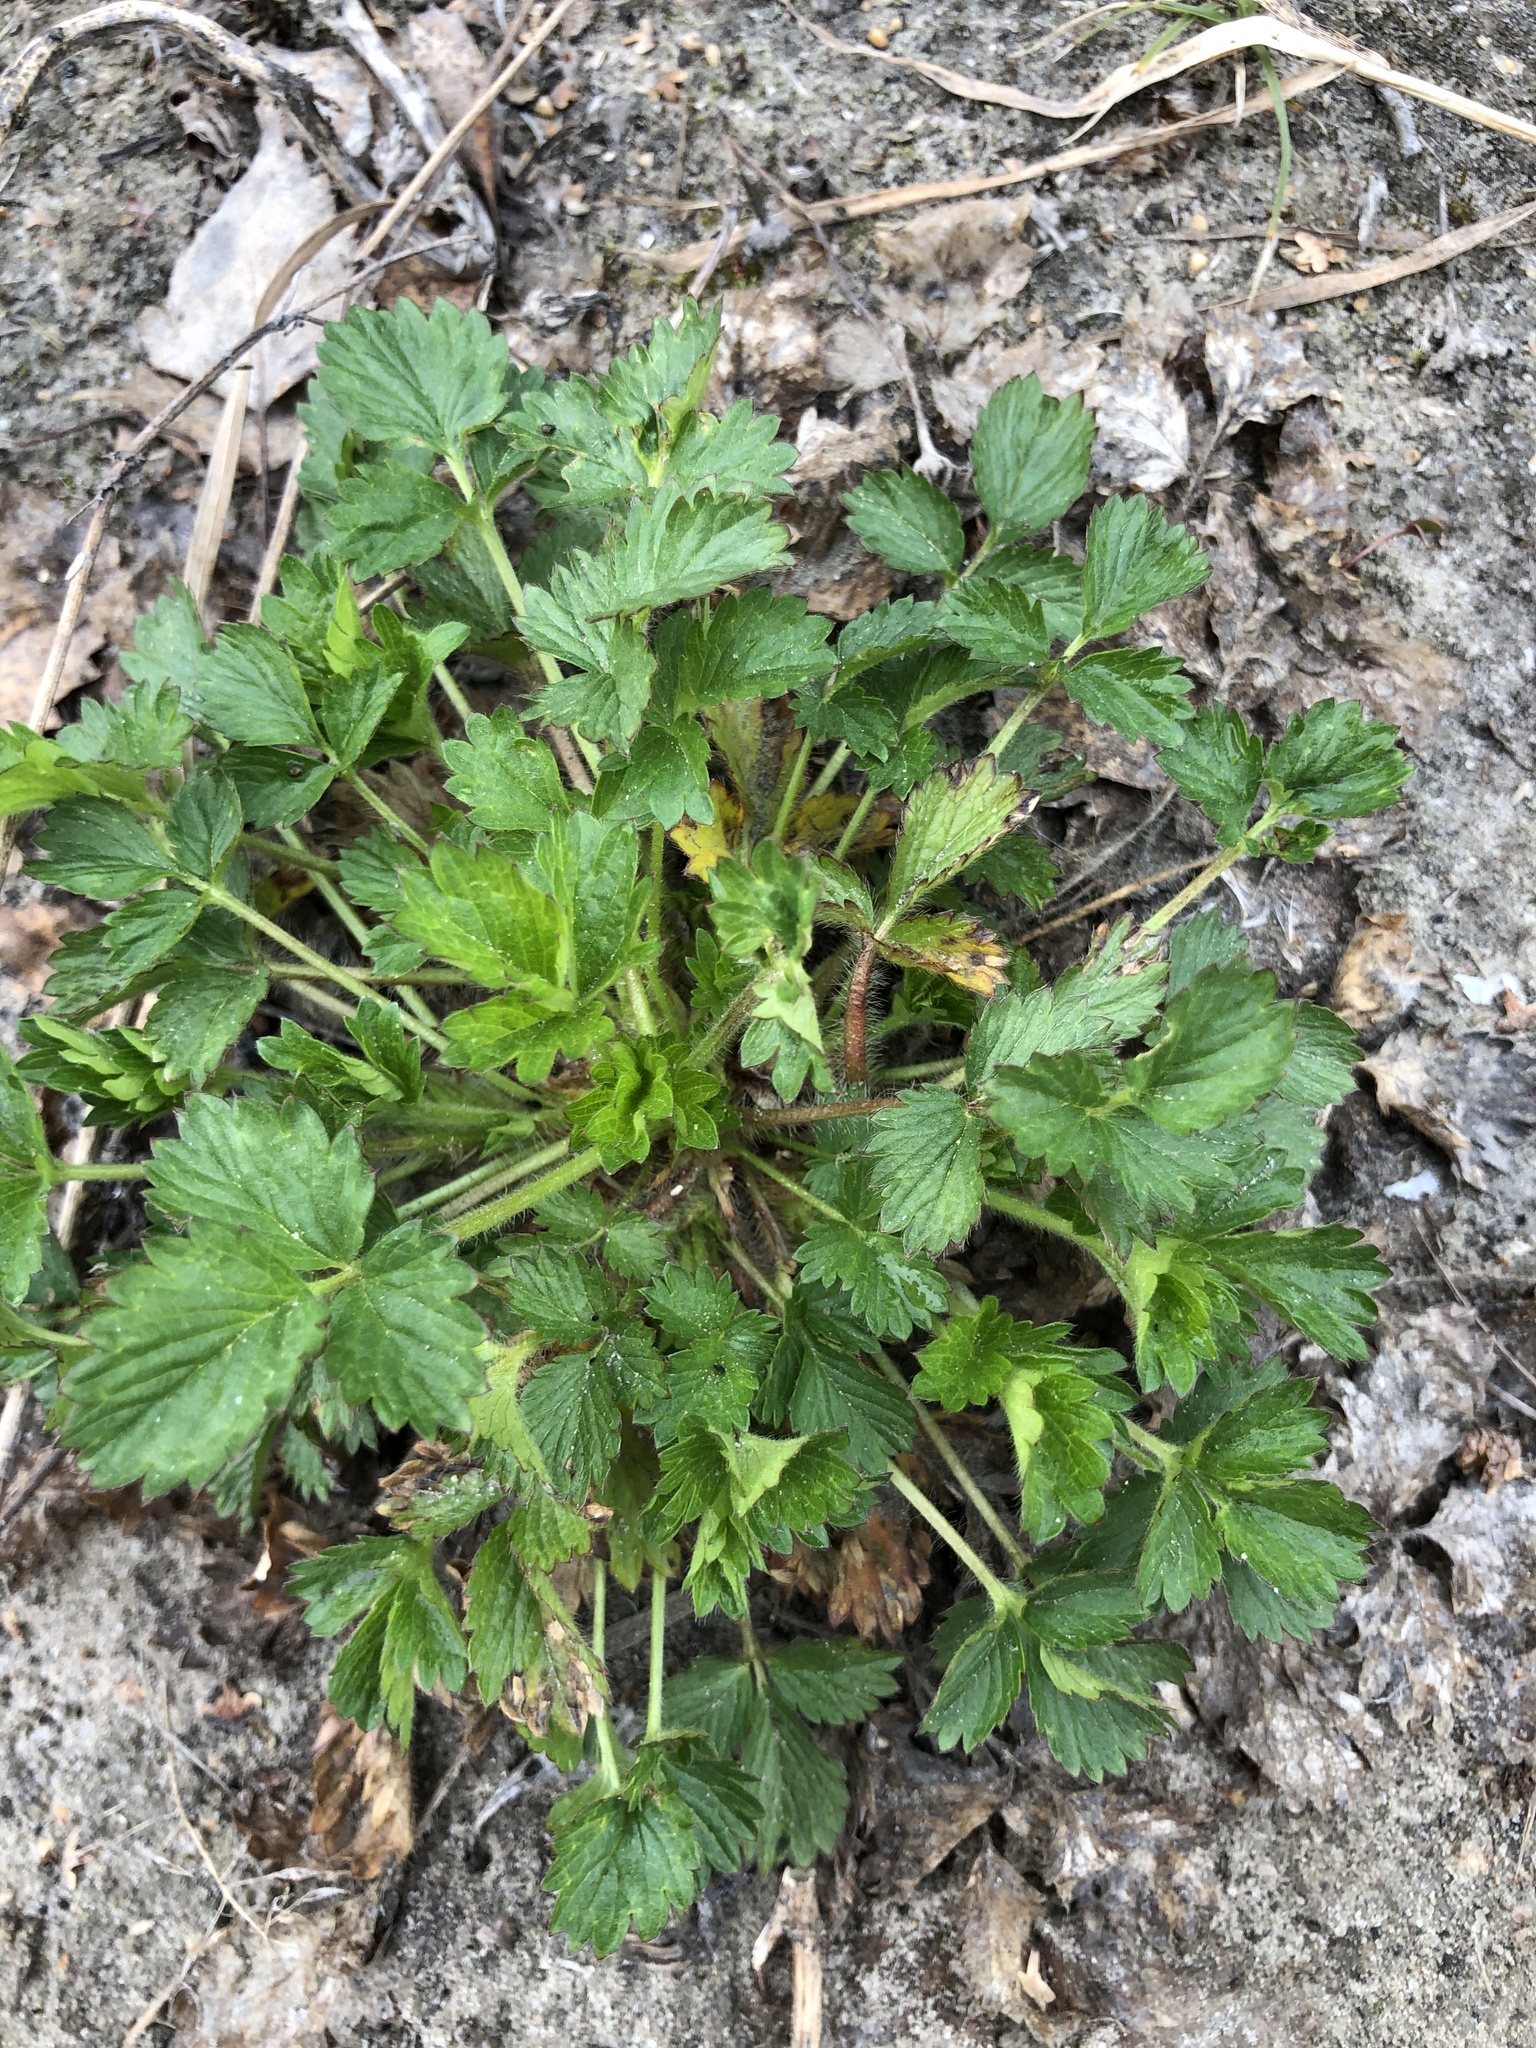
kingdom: Plantae
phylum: Tracheophyta
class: Magnoliopsida
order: Rosales
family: Rosaceae
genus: Potentilla
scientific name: Potentilla norvegica
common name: Ternate-leaved cinquefoil
